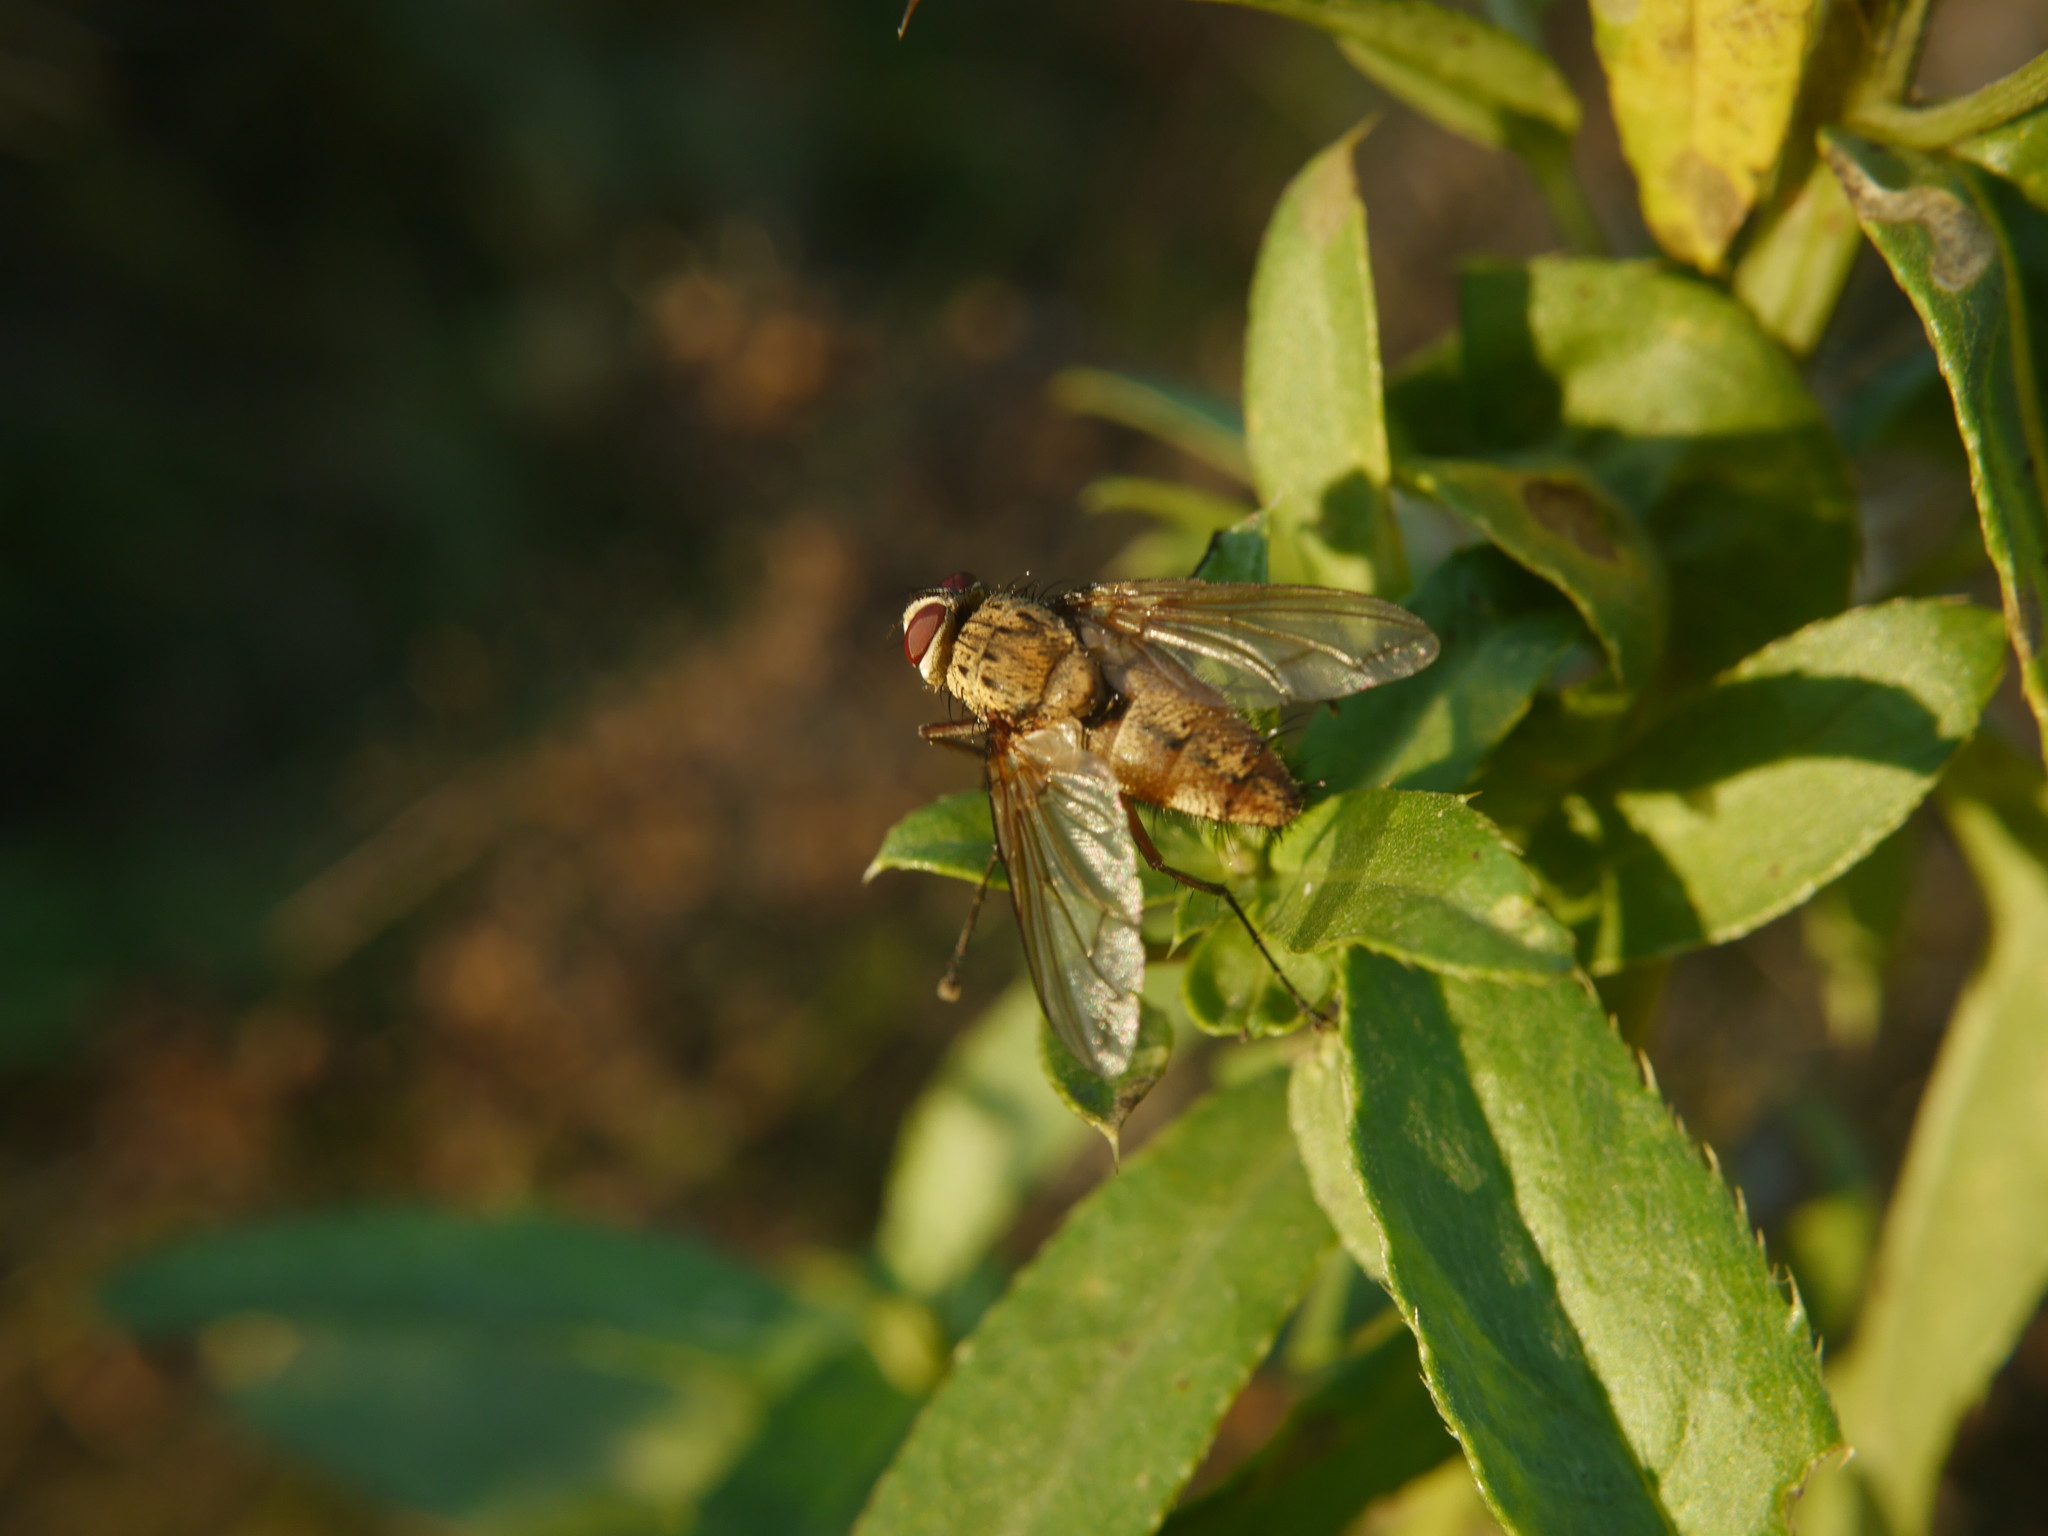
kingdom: Animalia
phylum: Arthropoda
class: Insecta
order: Diptera
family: Tachinidae
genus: Dexia
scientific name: Dexia rustica
